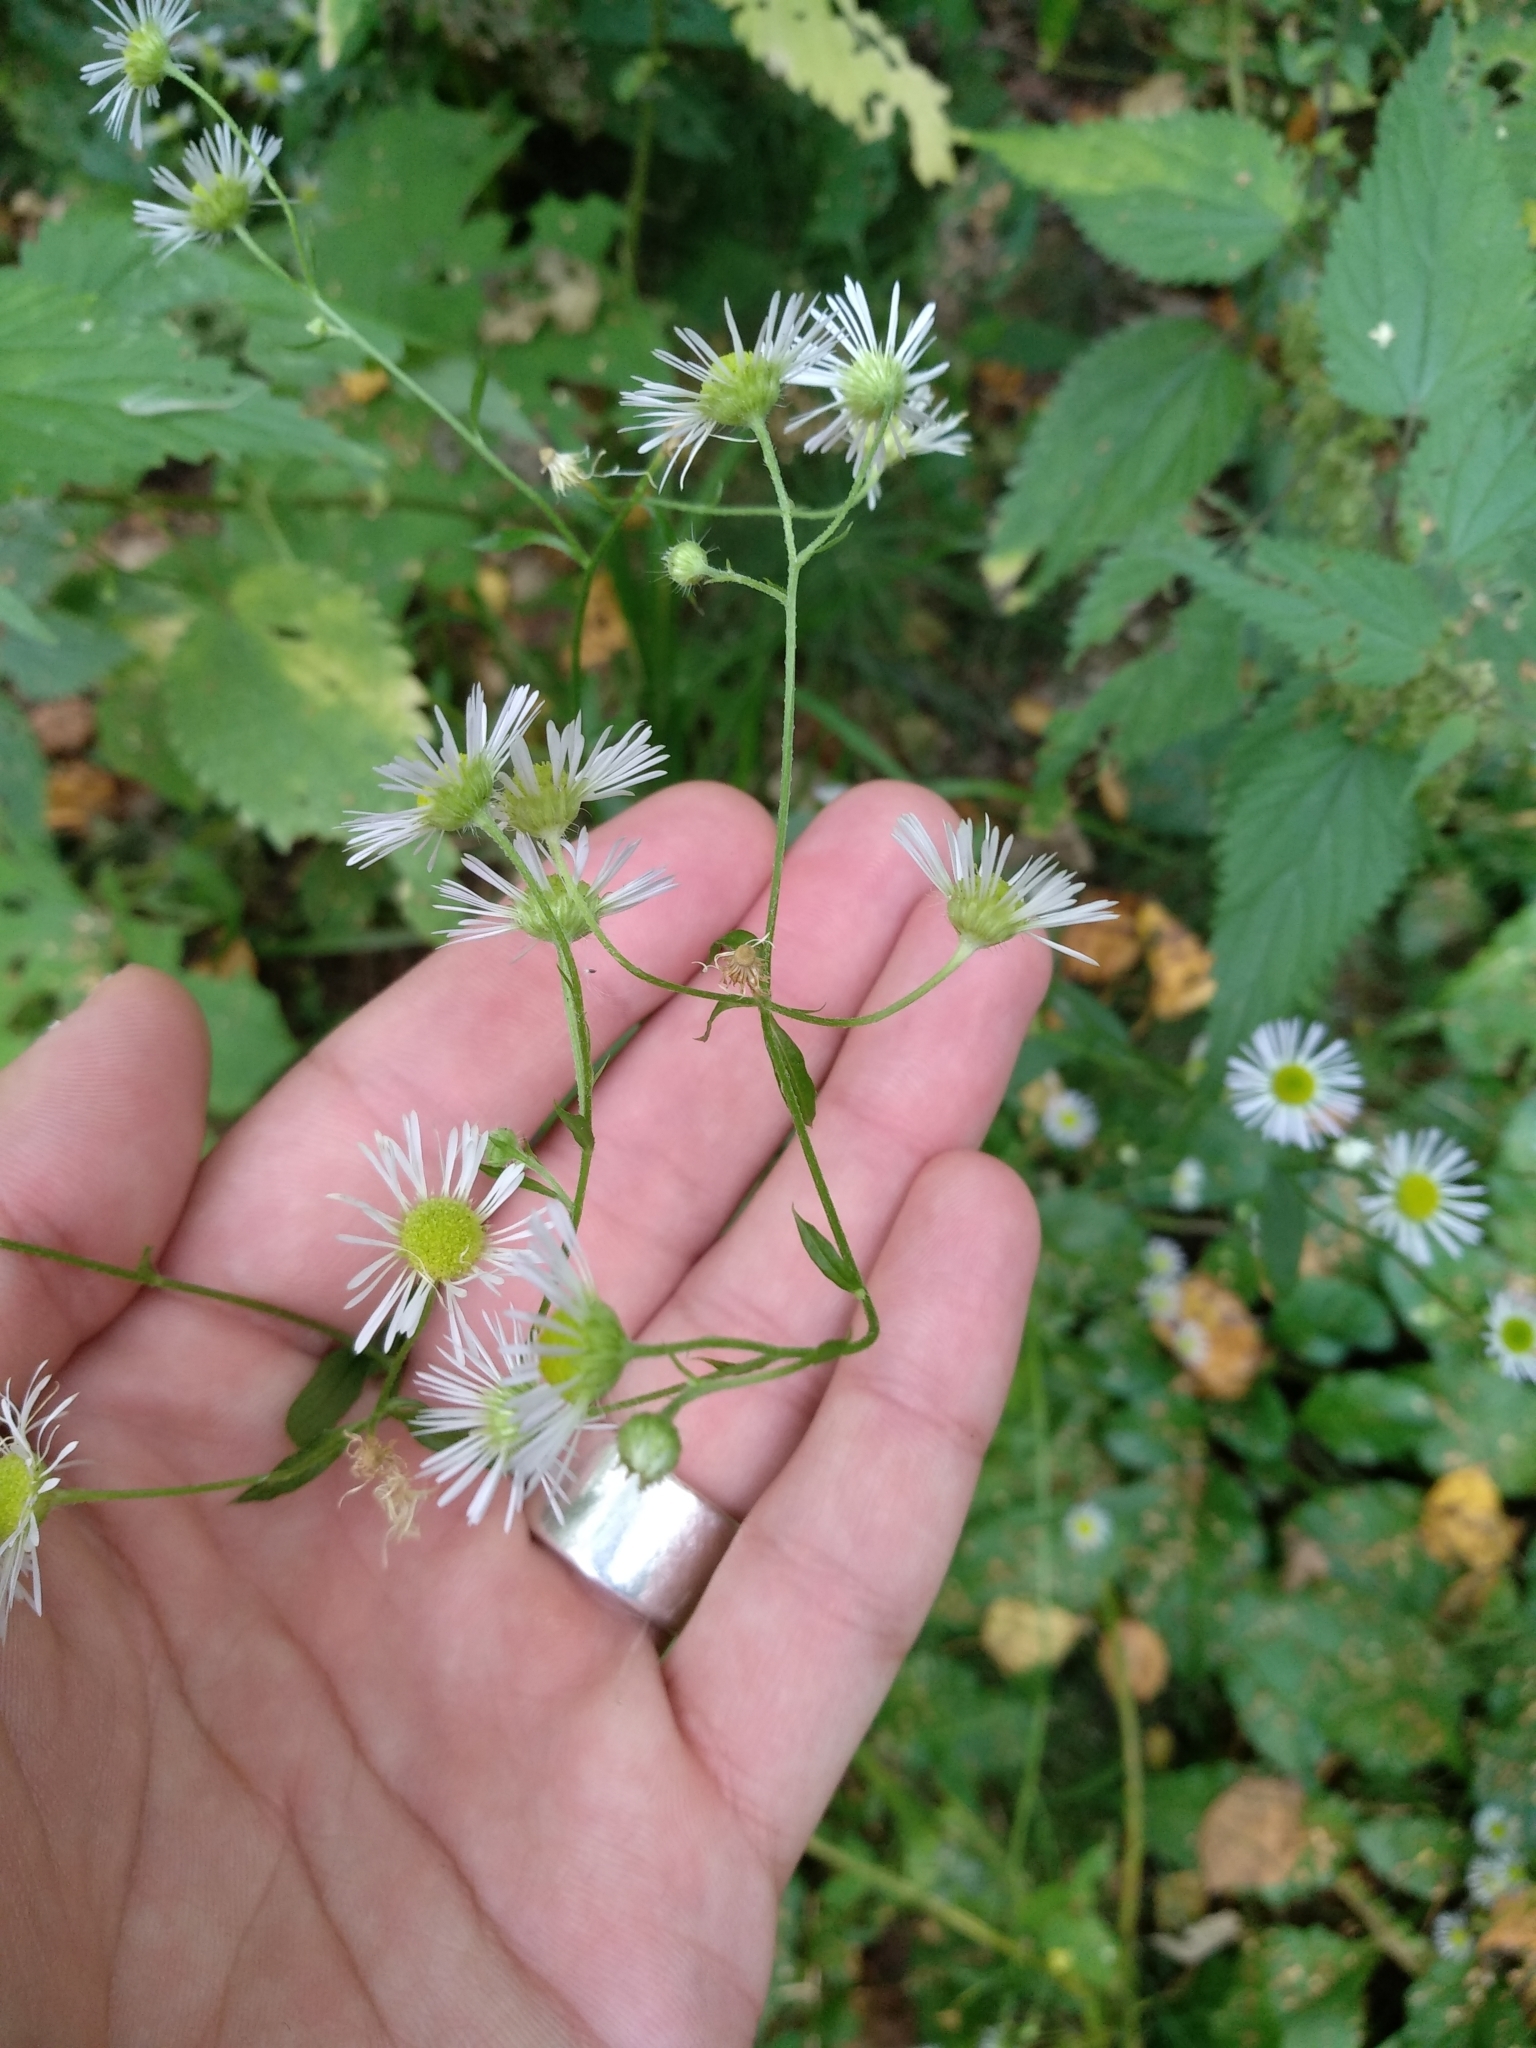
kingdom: Plantae
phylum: Tracheophyta
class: Magnoliopsida
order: Asterales
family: Asteraceae
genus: Erigeron
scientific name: Erigeron annuus
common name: Tall fleabane
